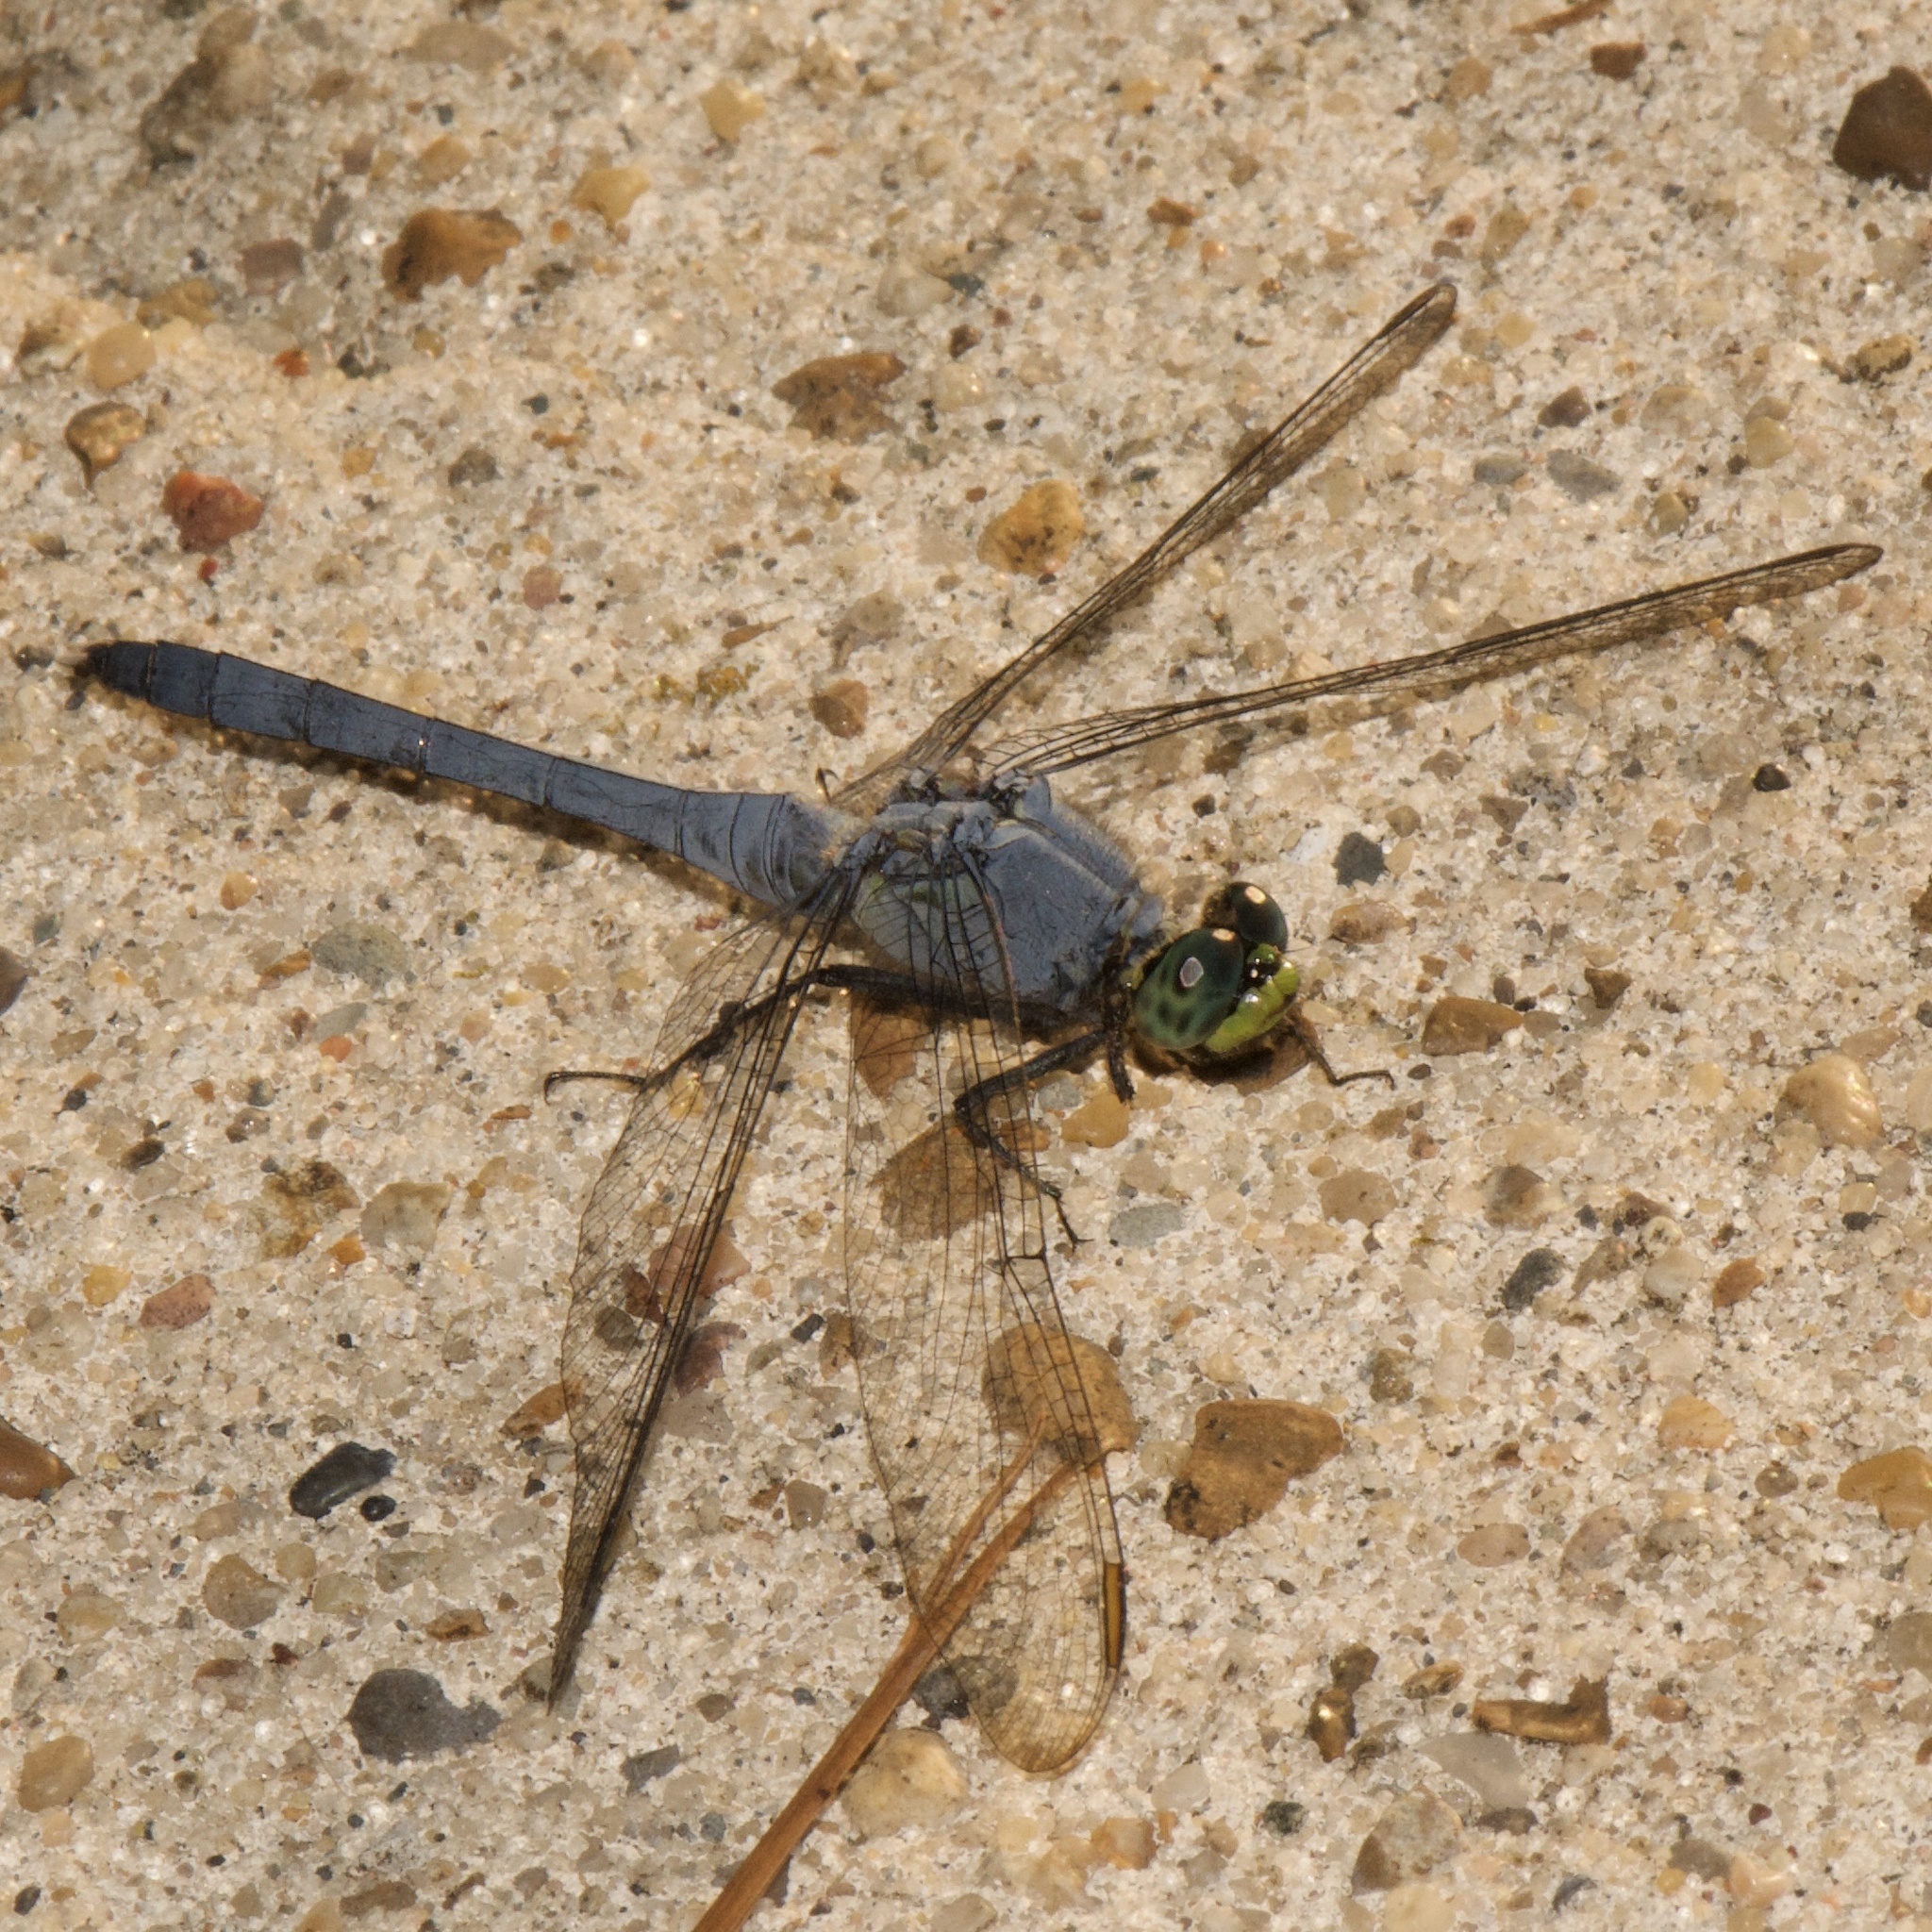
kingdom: Animalia
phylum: Arthropoda
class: Insecta
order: Odonata
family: Libellulidae
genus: Erythemis
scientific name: Erythemis simplicicollis
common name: Eastern pondhawk
